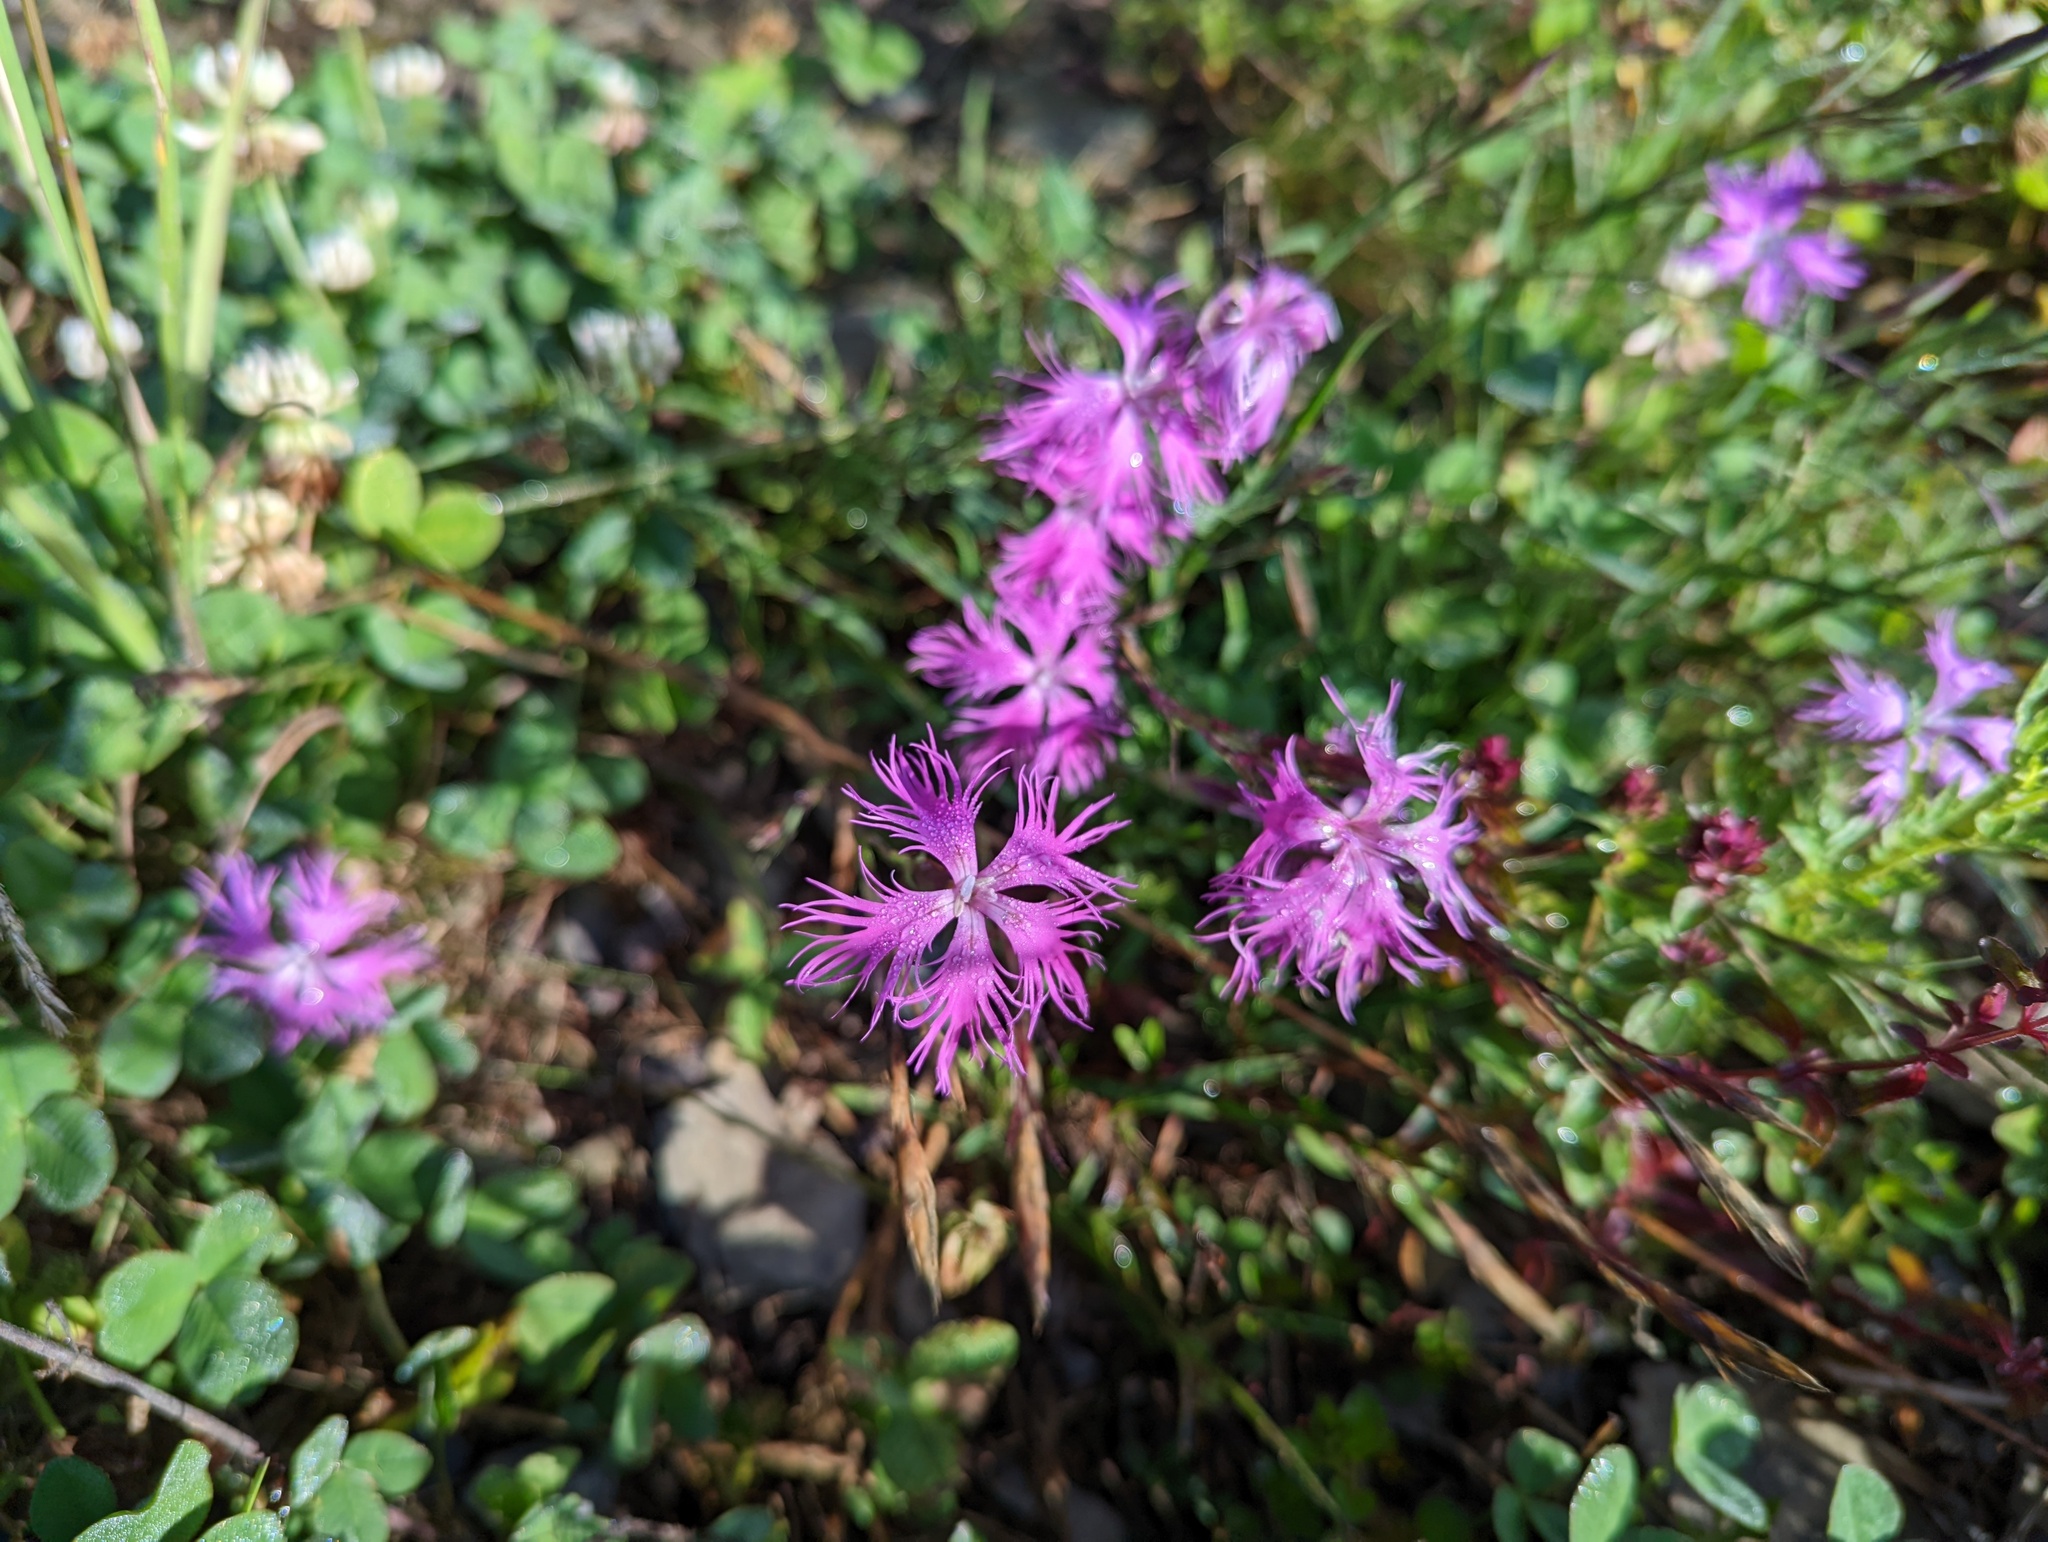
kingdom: Plantae
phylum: Tracheophyta
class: Magnoliopsida
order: Caryophyllales
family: Caryophyllaceae
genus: Dianthus
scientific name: Dianthus pygmaeus
